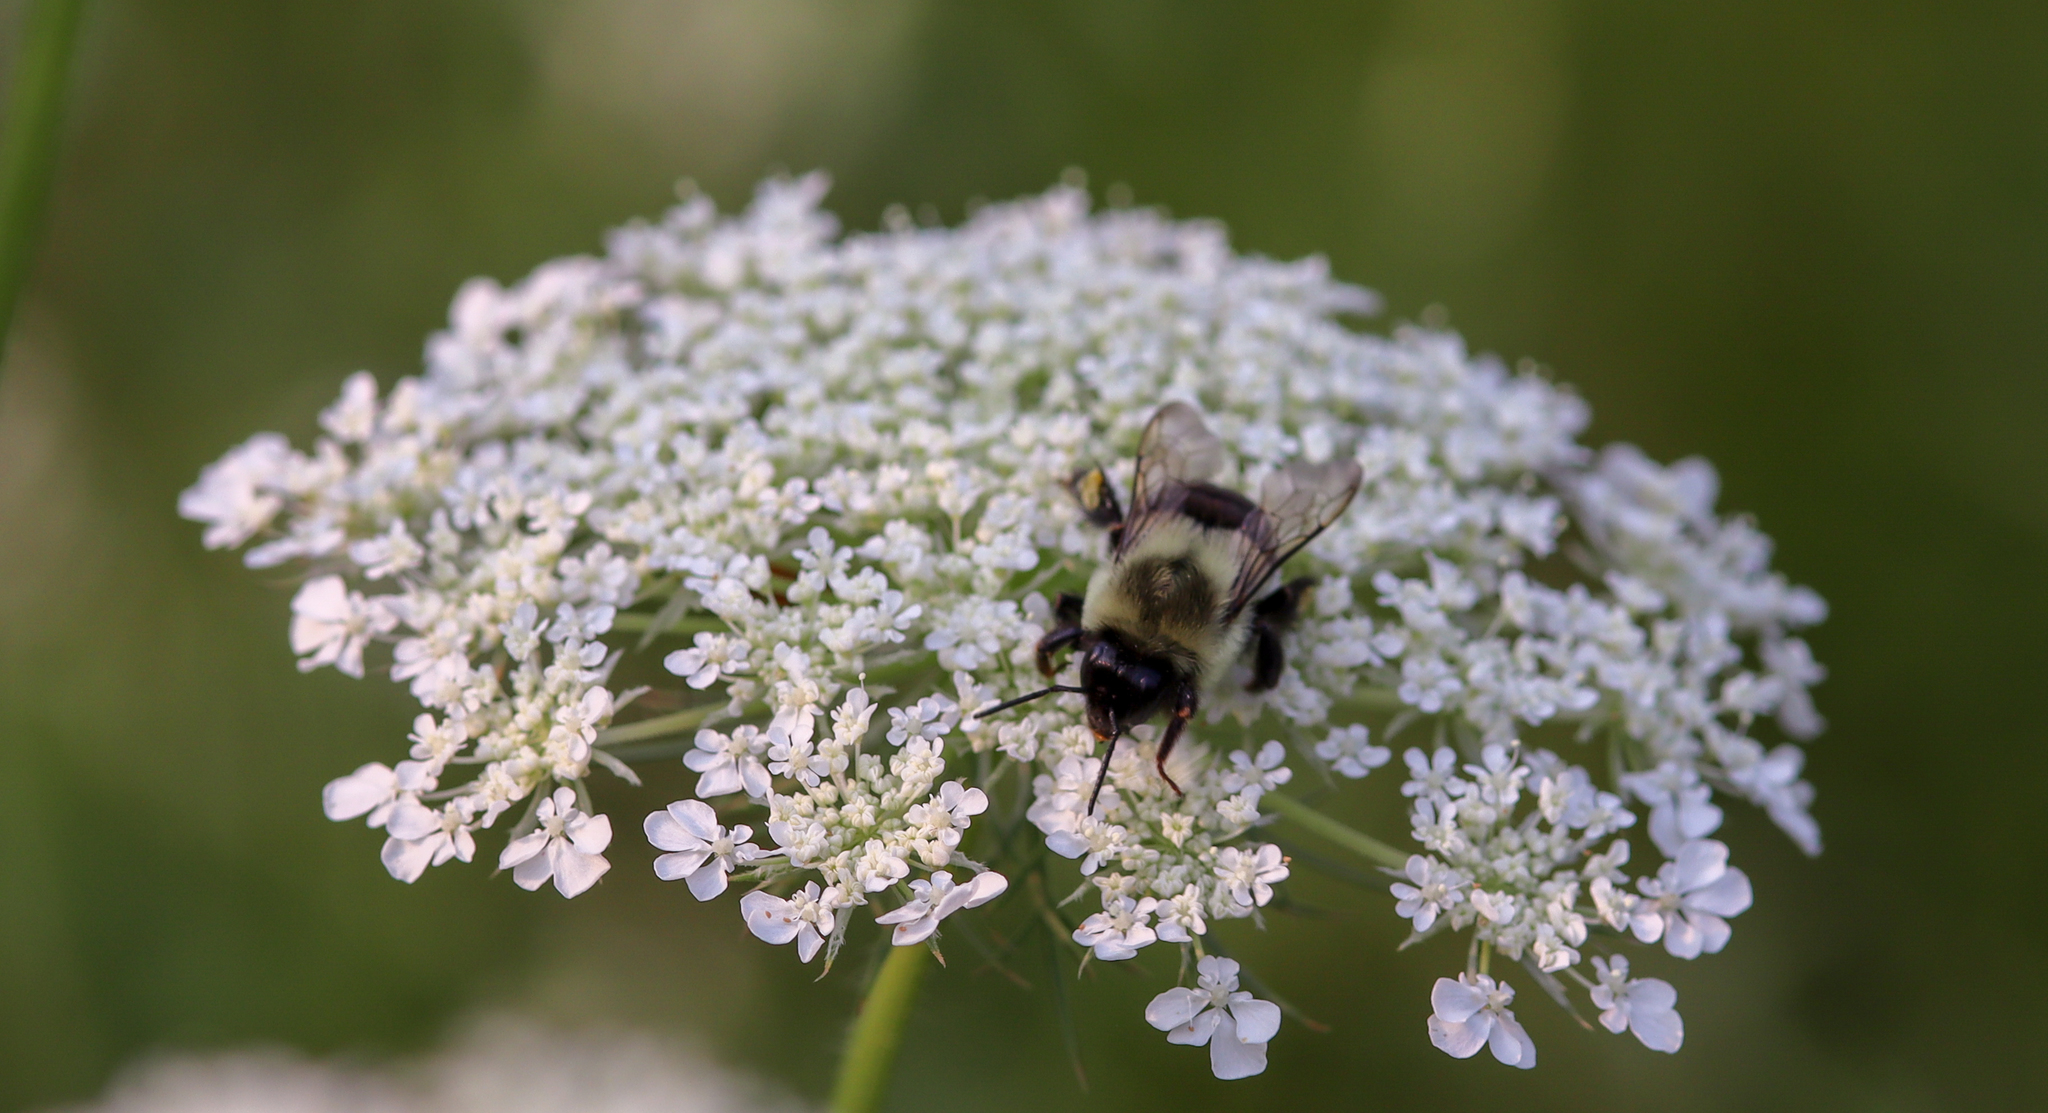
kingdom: Animalia
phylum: Arthropoda
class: Insecta
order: Hymenoptera
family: Apidae
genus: Bombus
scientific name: Bombus impatiens
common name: Common eastern bumble bee
